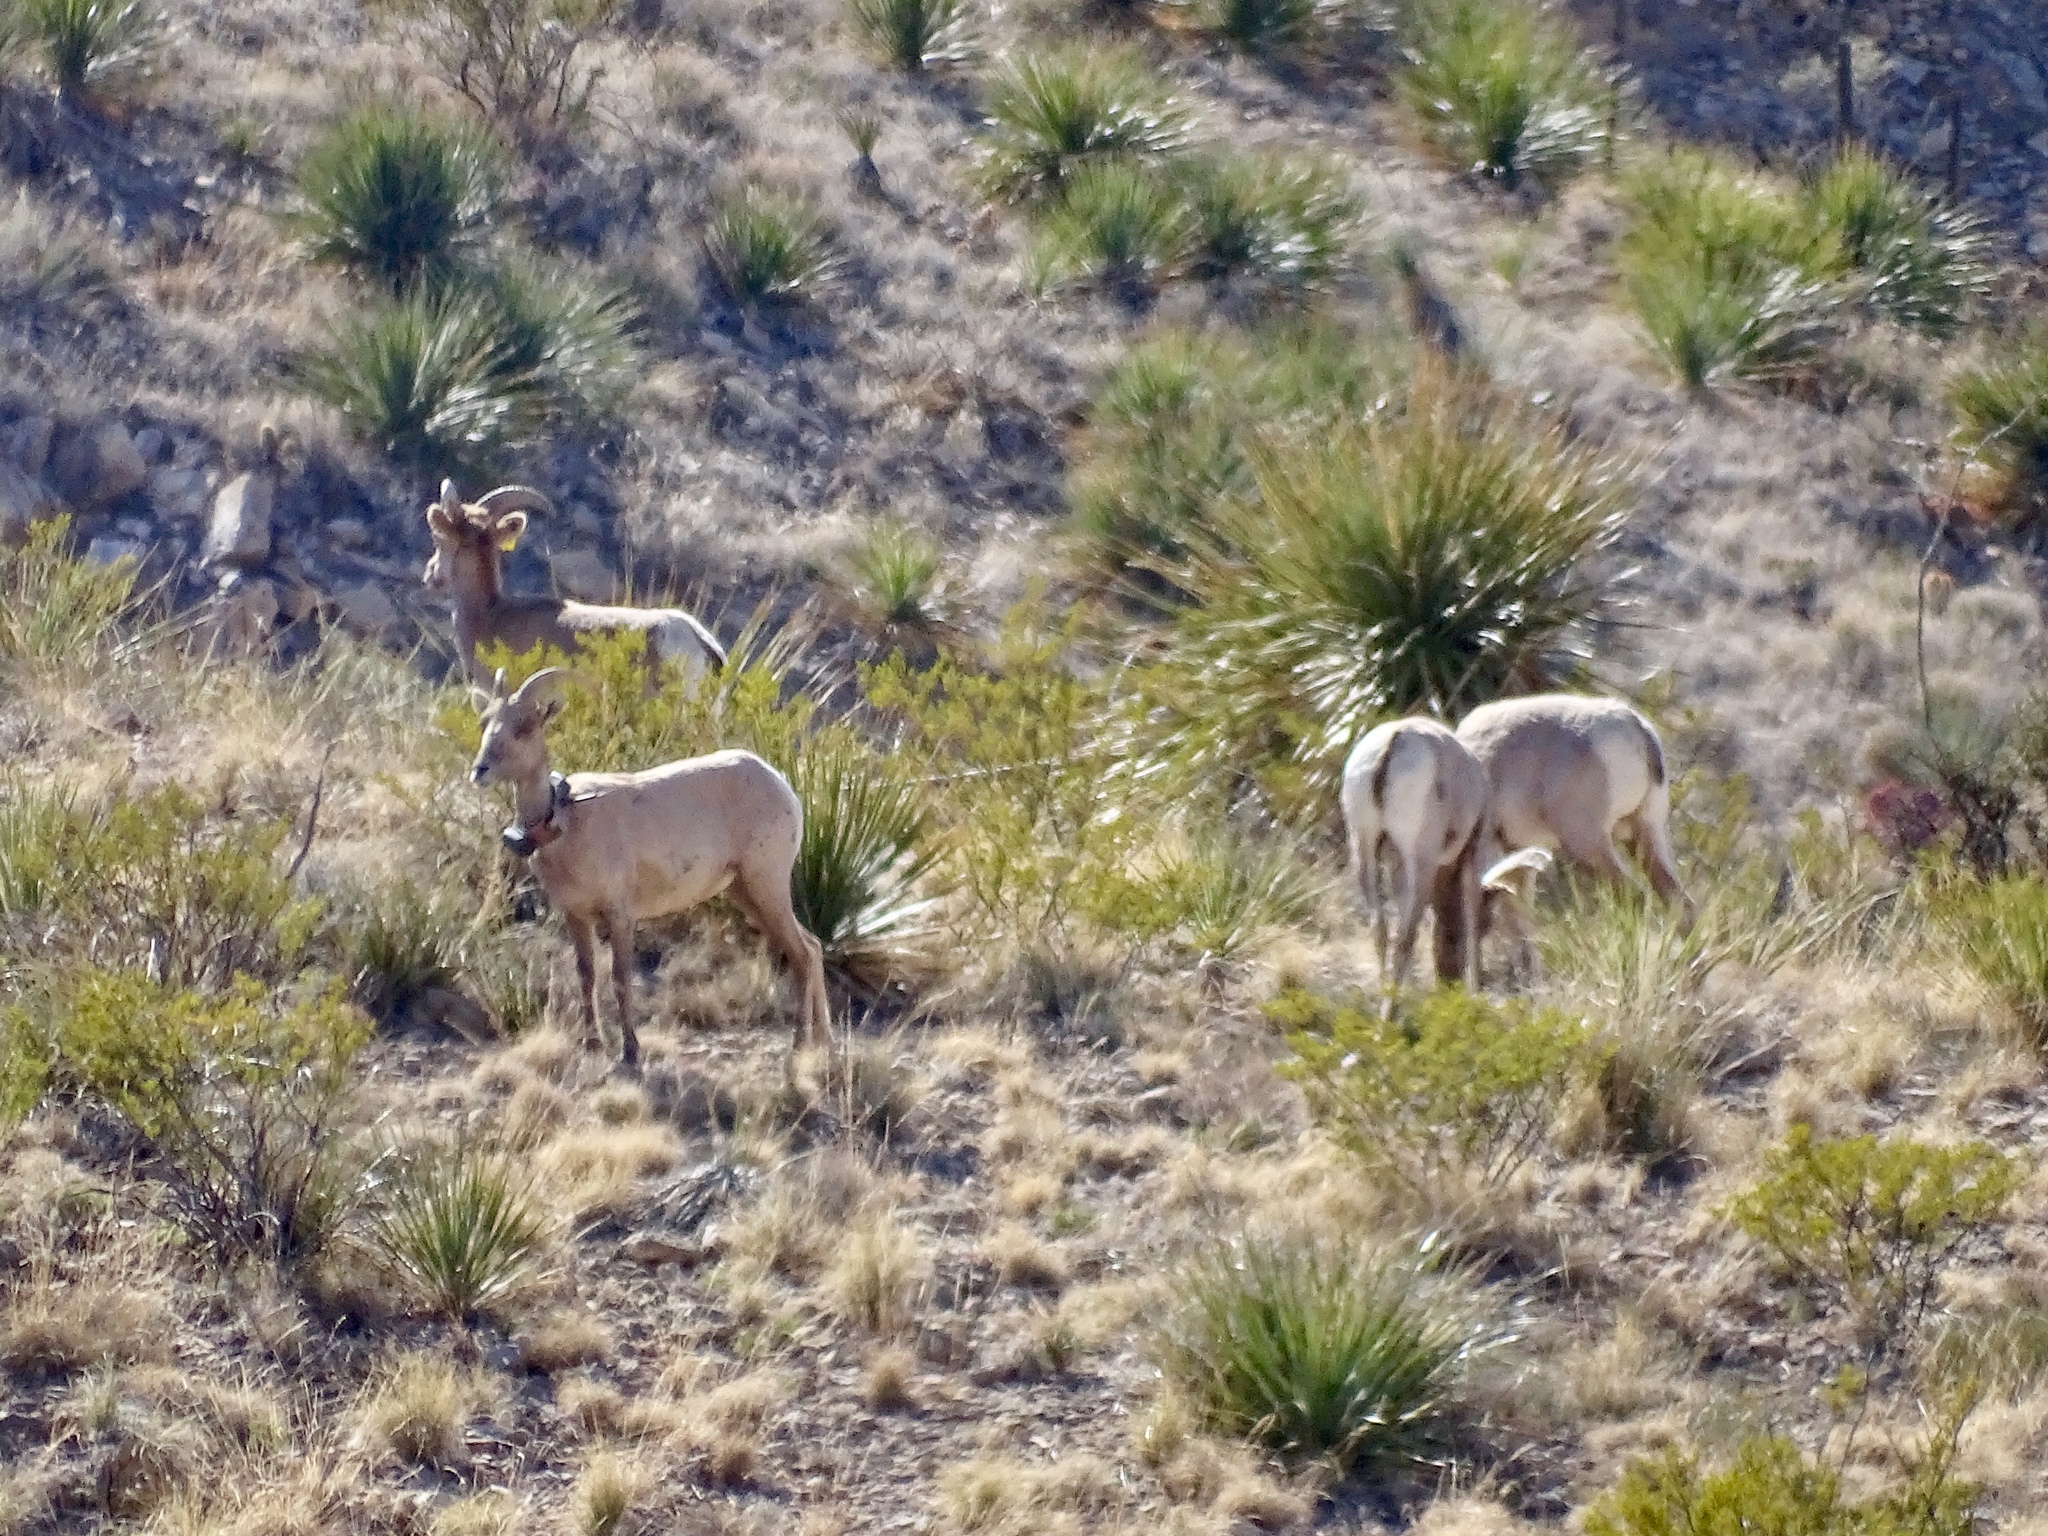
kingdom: Animalia
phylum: Chordata
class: Mammalia
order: Artiodactyla
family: Bovidae
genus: Ovis
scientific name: Ovis canadensis
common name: Bighorn sheep
